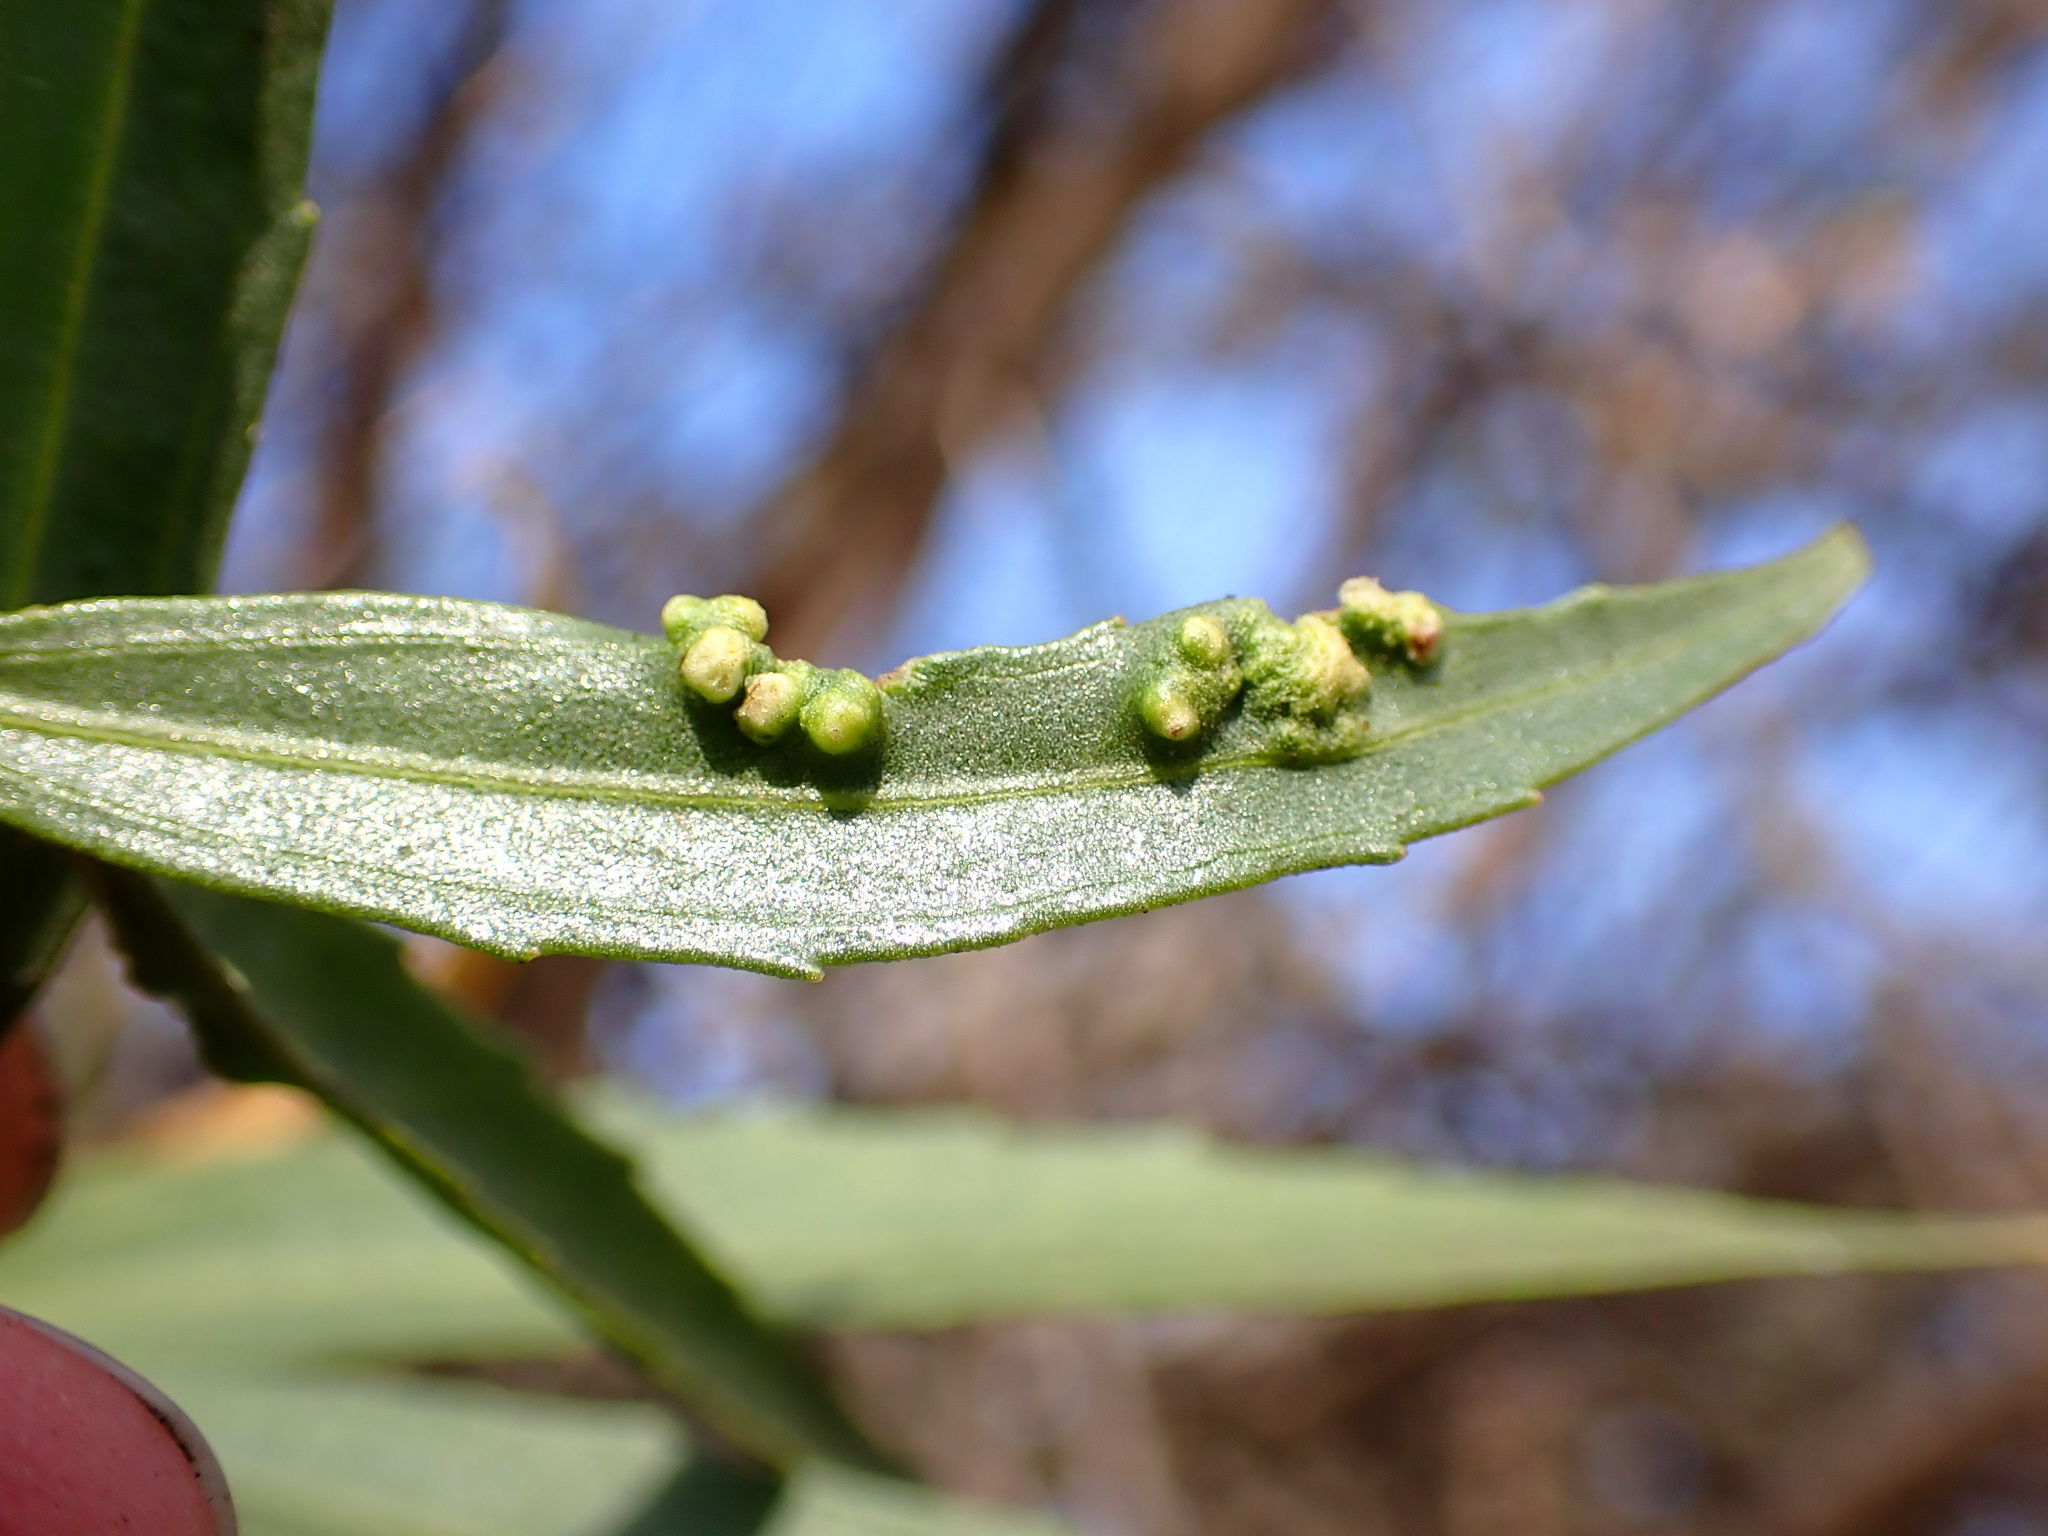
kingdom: Animalia
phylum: Arthropoda
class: Arachnida
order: Trombidiformes
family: Eriophyidae
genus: Aceria
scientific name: Aceria
